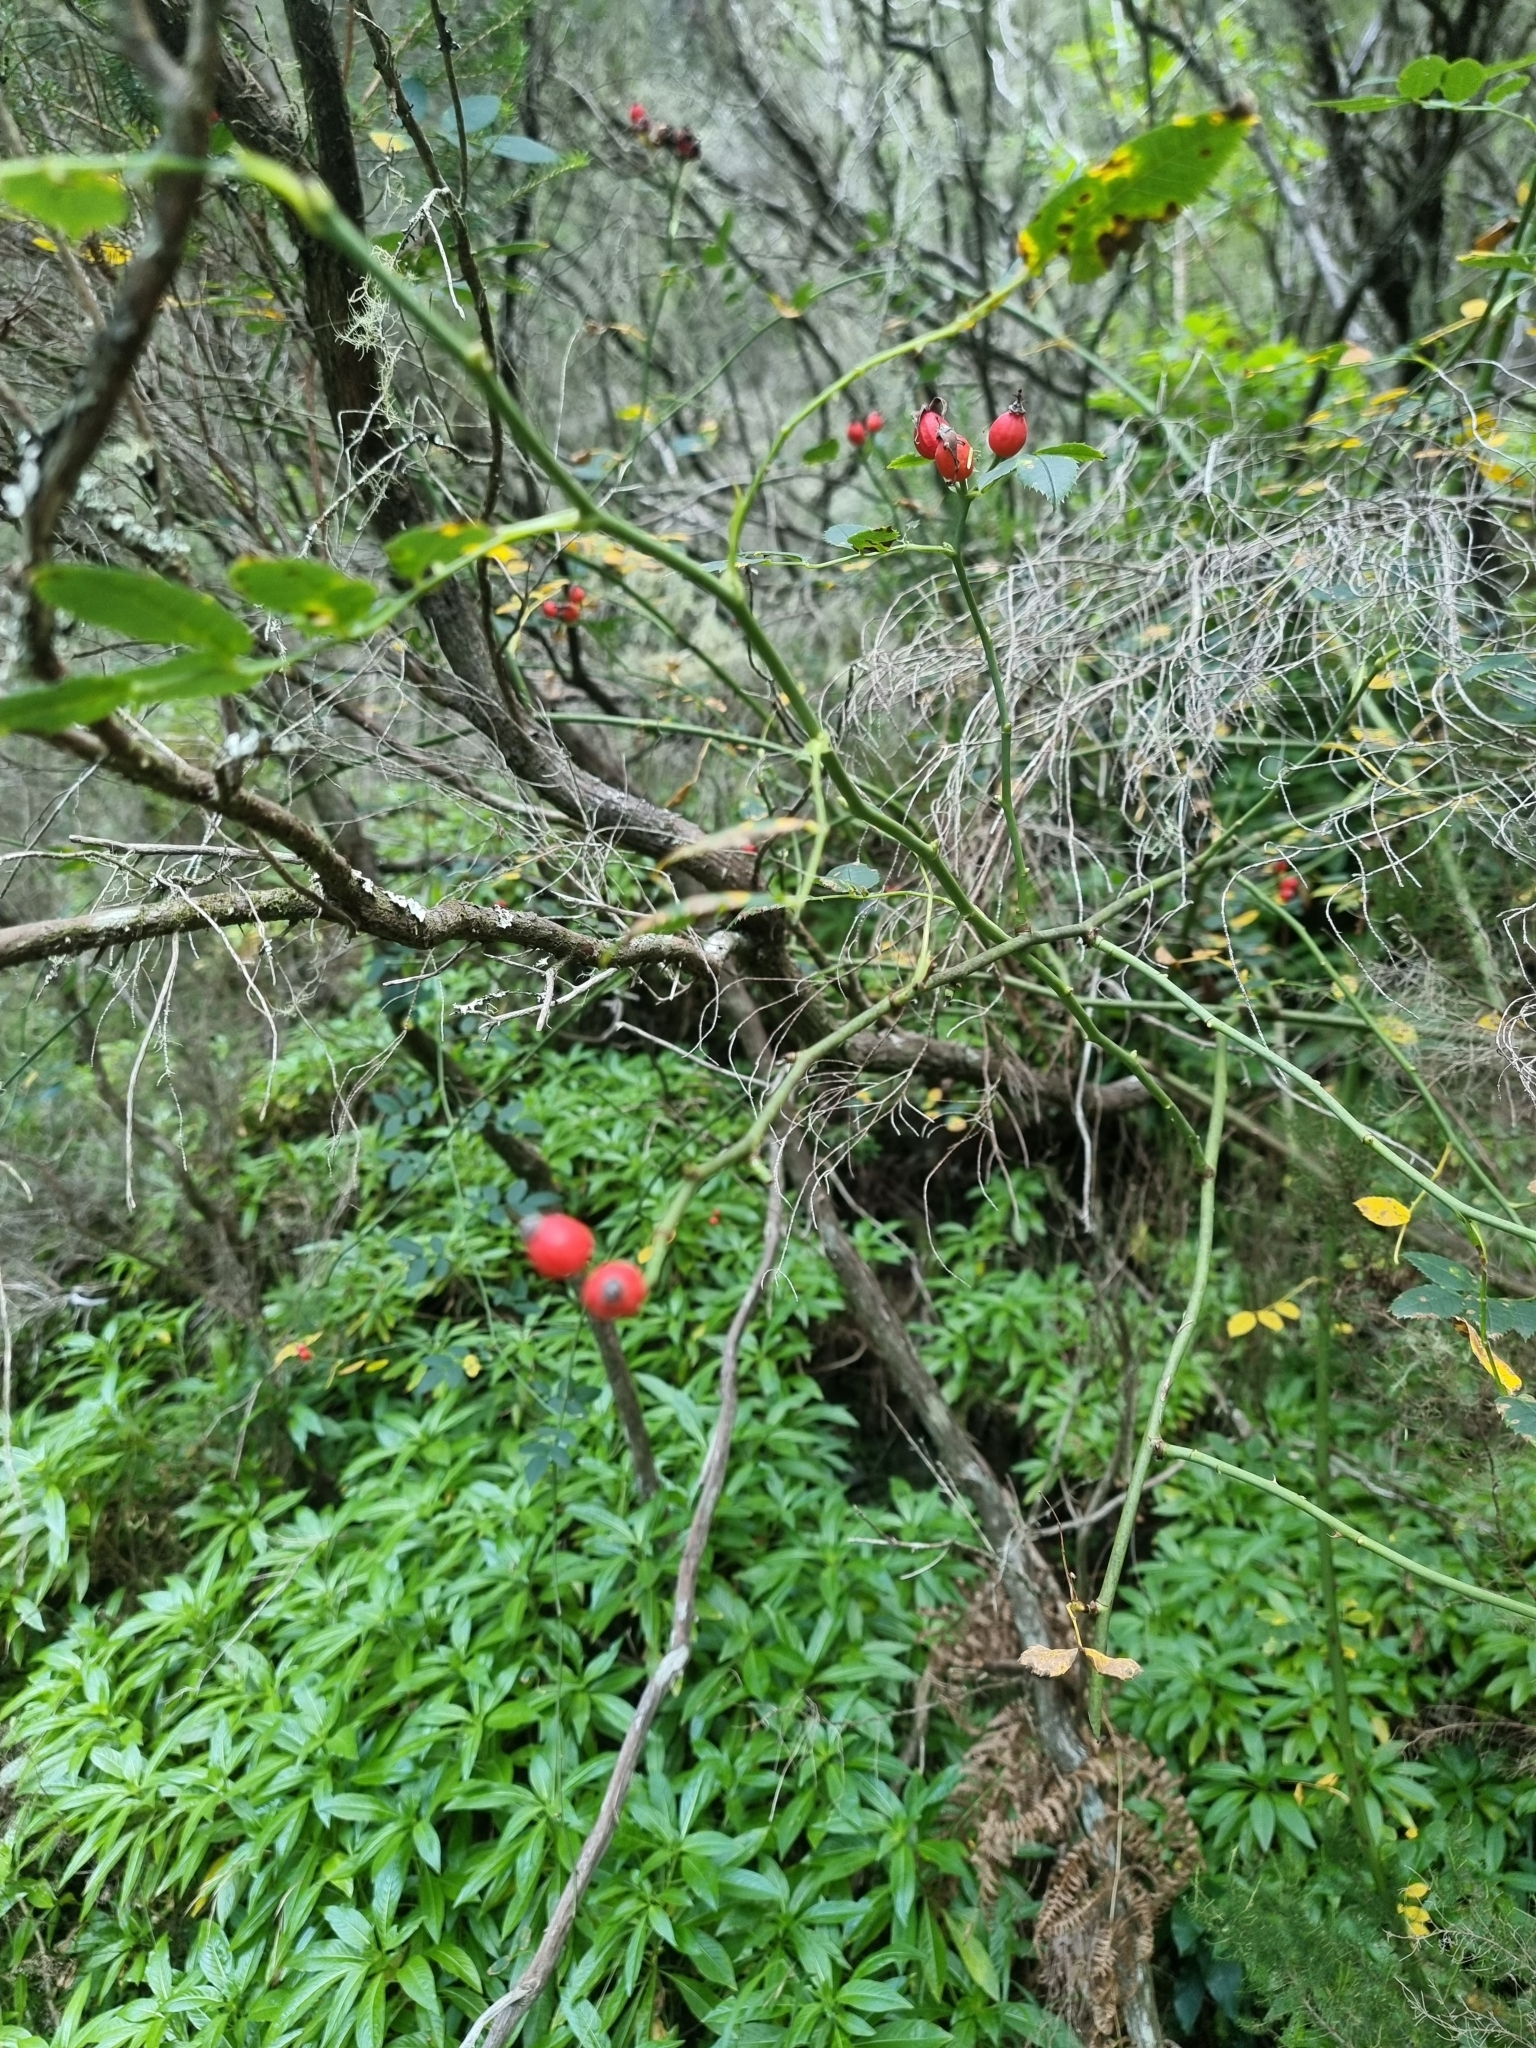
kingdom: Plantae
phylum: Tracheophyta
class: Magnoliopsida
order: Rosales
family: Rosaceae
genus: Rosa
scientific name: Rosa canina
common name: Dog rose
